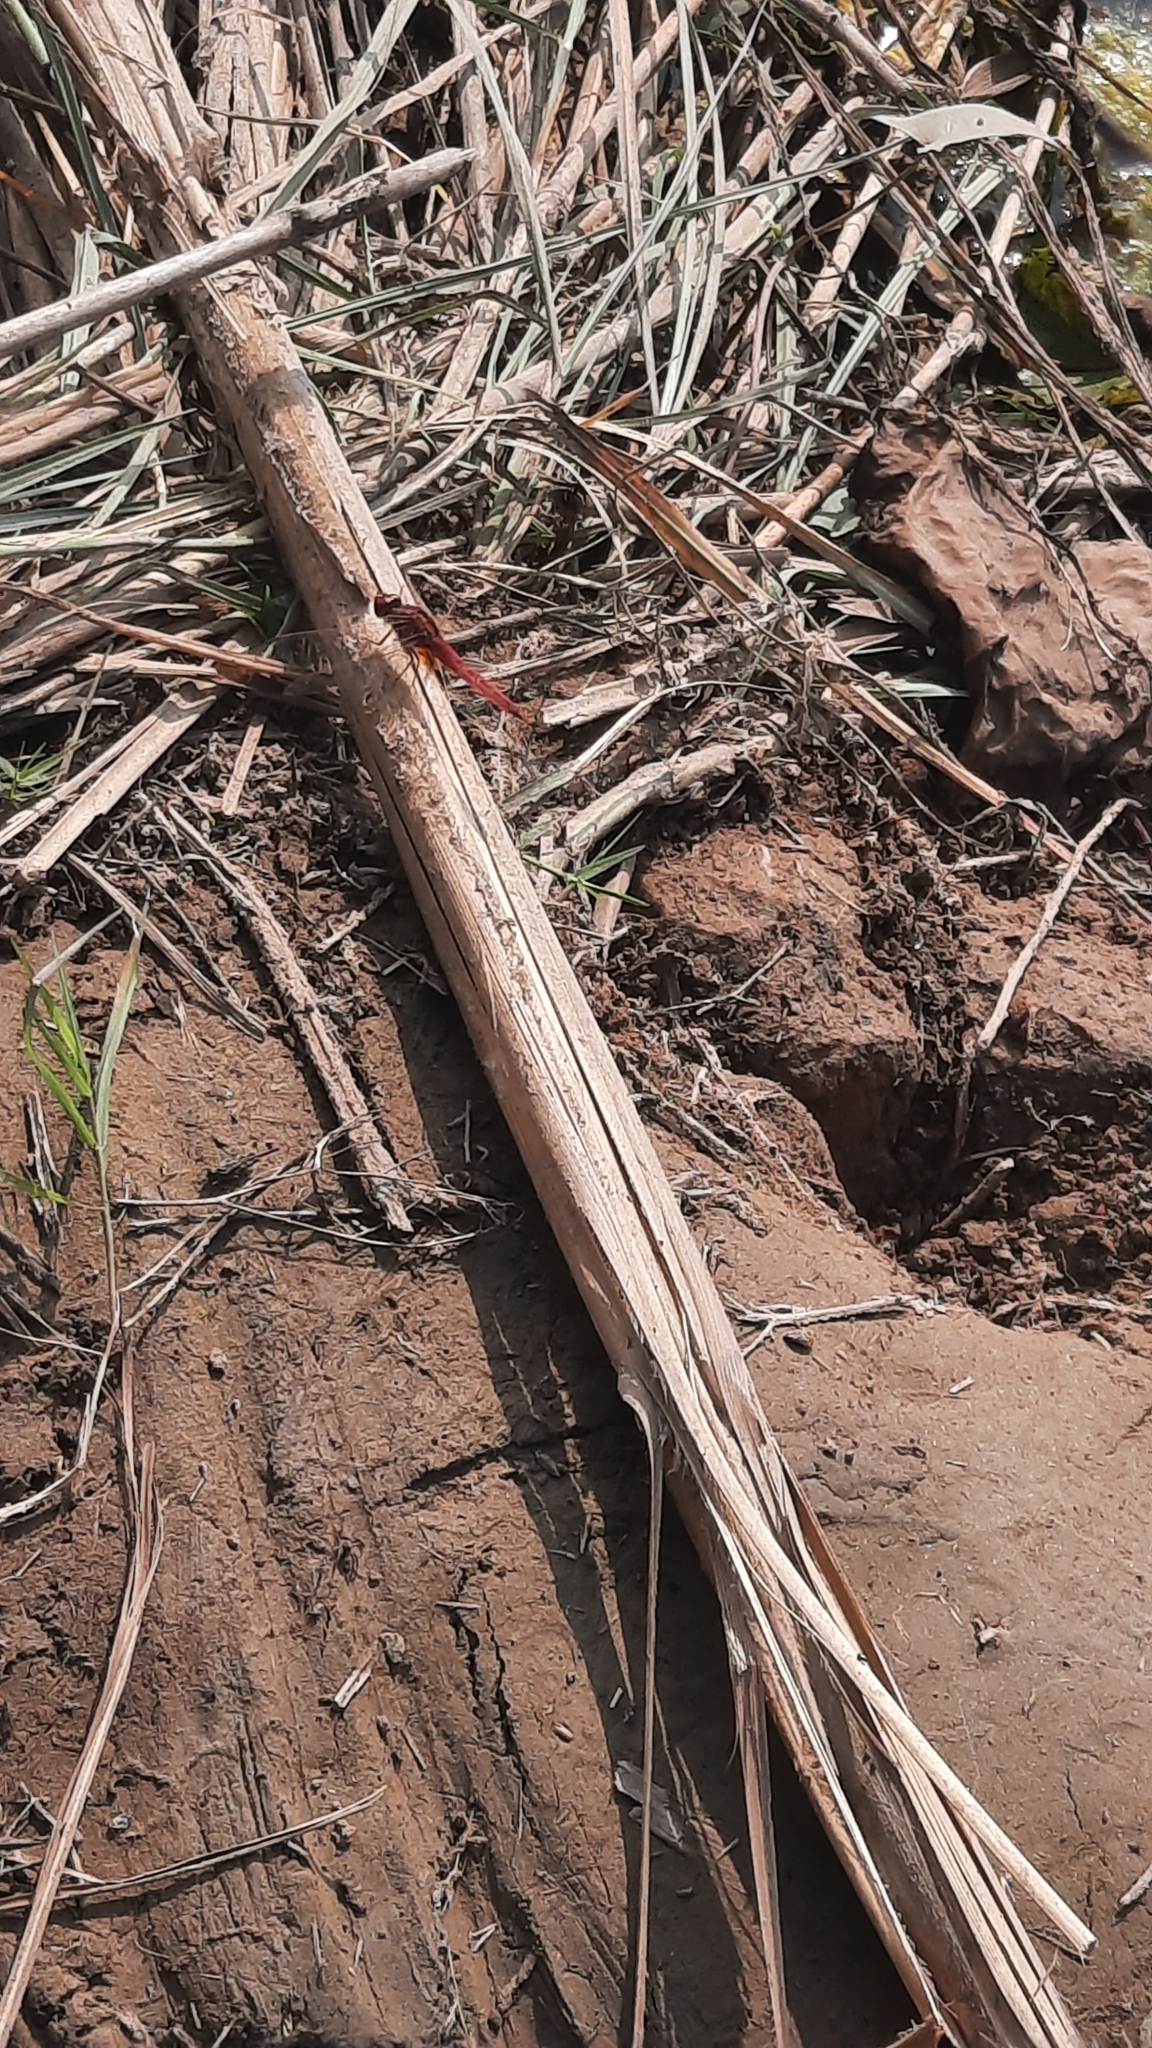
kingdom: Animalia
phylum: Arthropoda
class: Insecta
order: Odonata
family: Libellulidae
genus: Crocothemis
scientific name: Crocothemis servilia
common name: Scarlet skimmer
